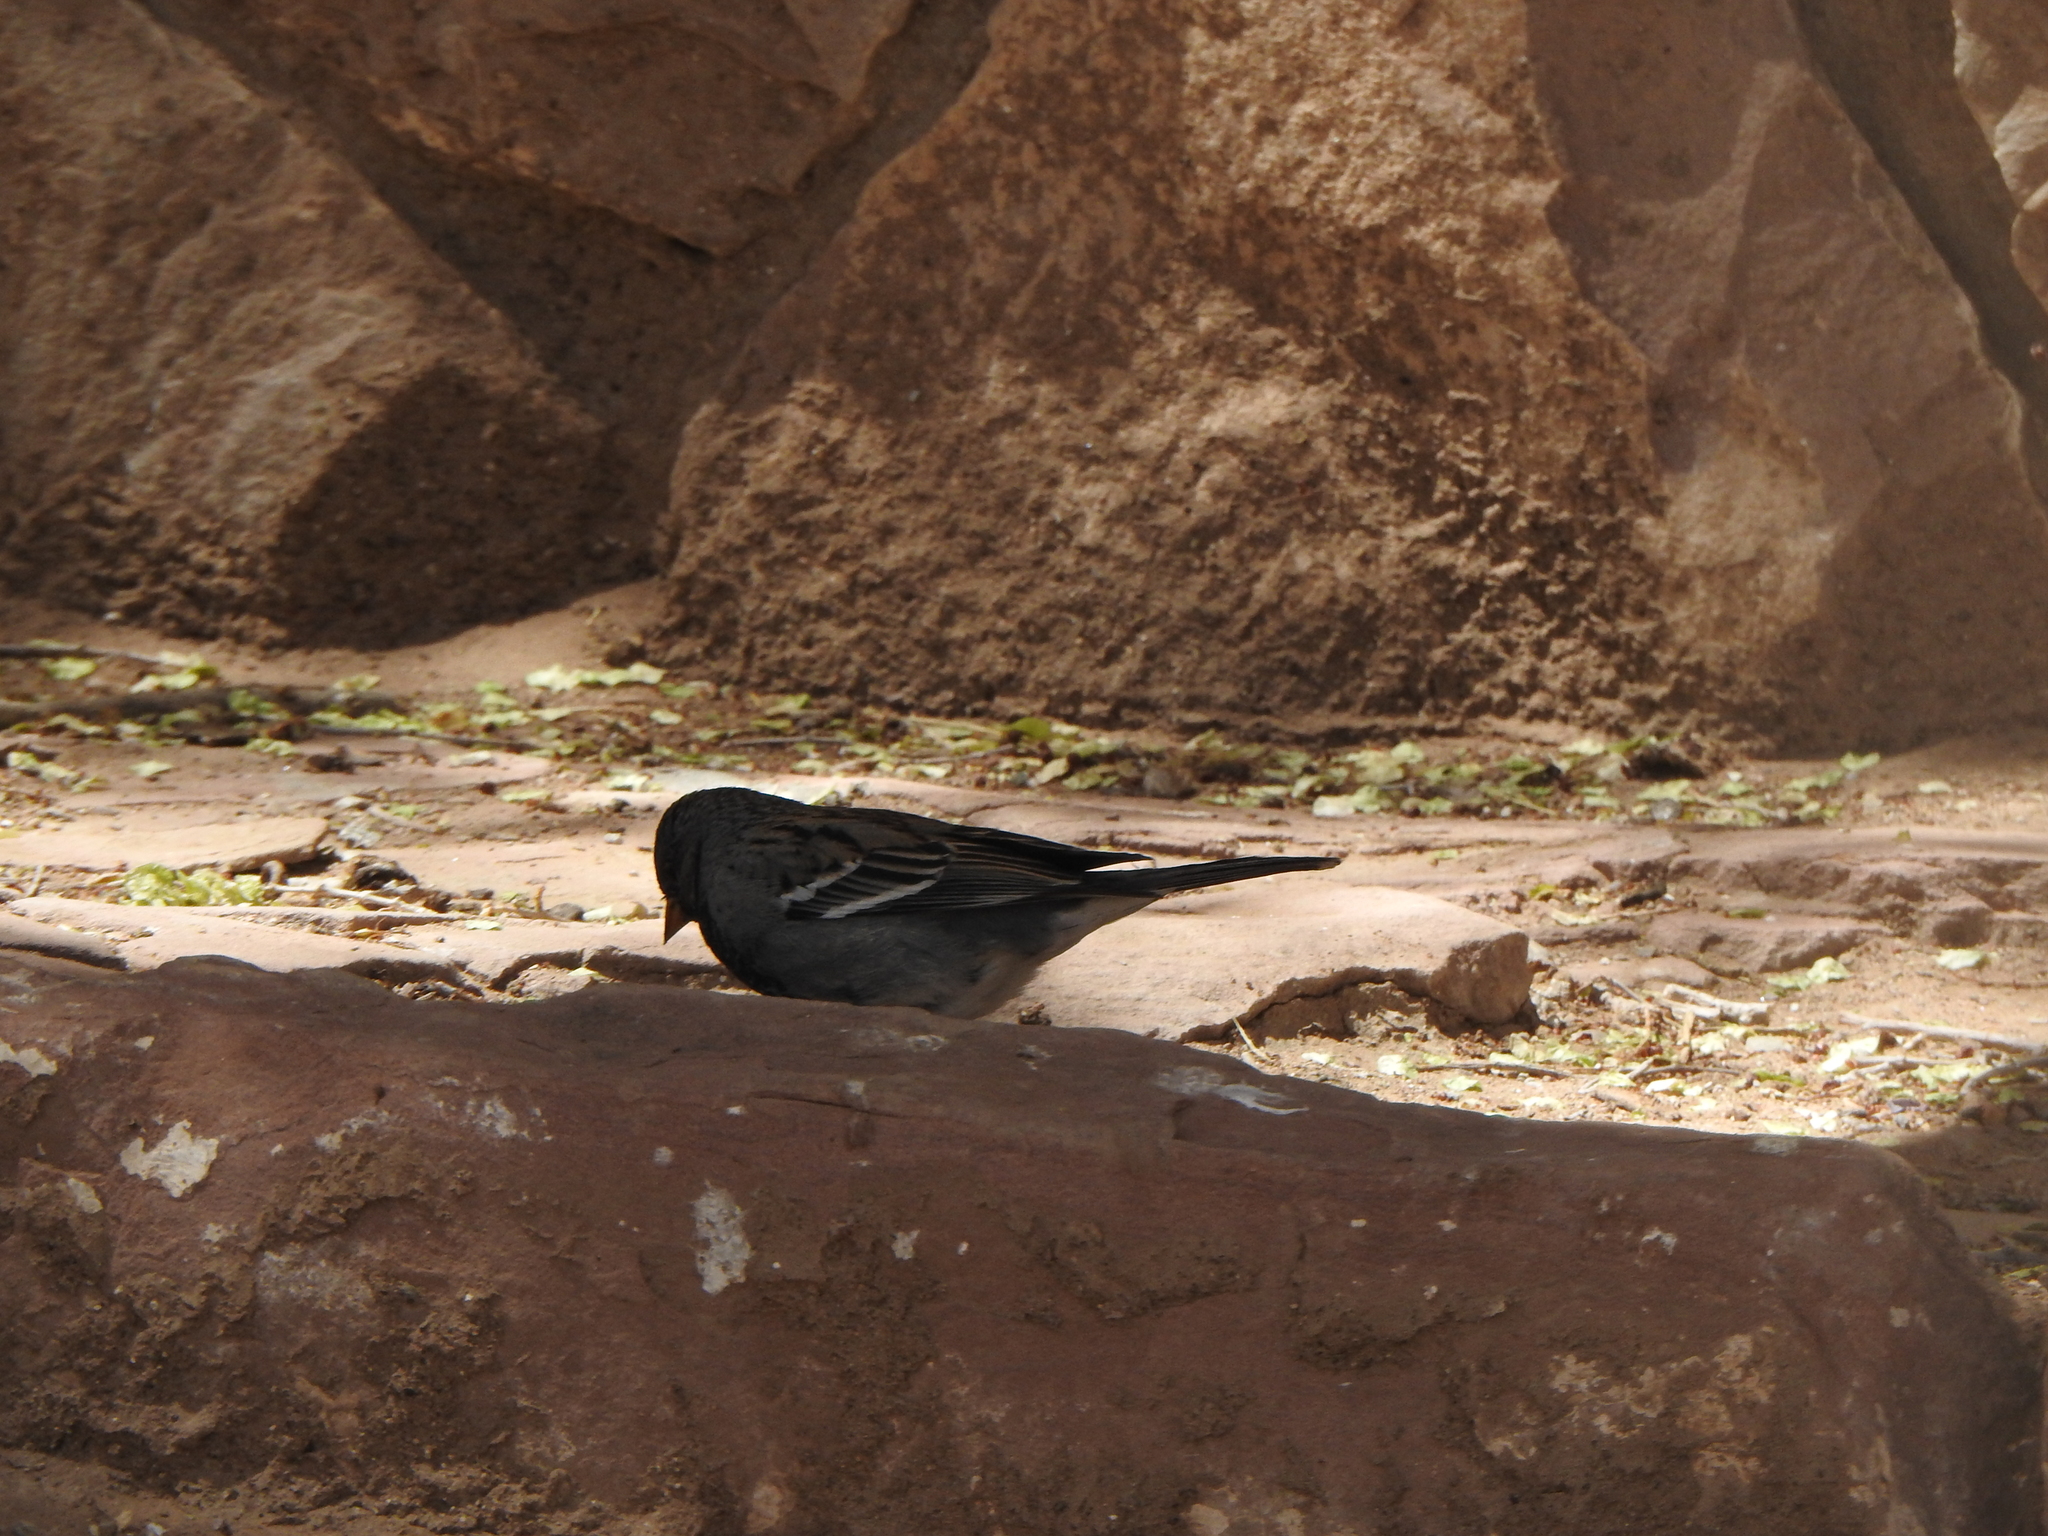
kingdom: Animalia
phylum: Chordata
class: Aves
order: Passeriformes
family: Thraupidae
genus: Rhopospina
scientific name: Rhopospina fruticeti
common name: Mourning sierra finch
